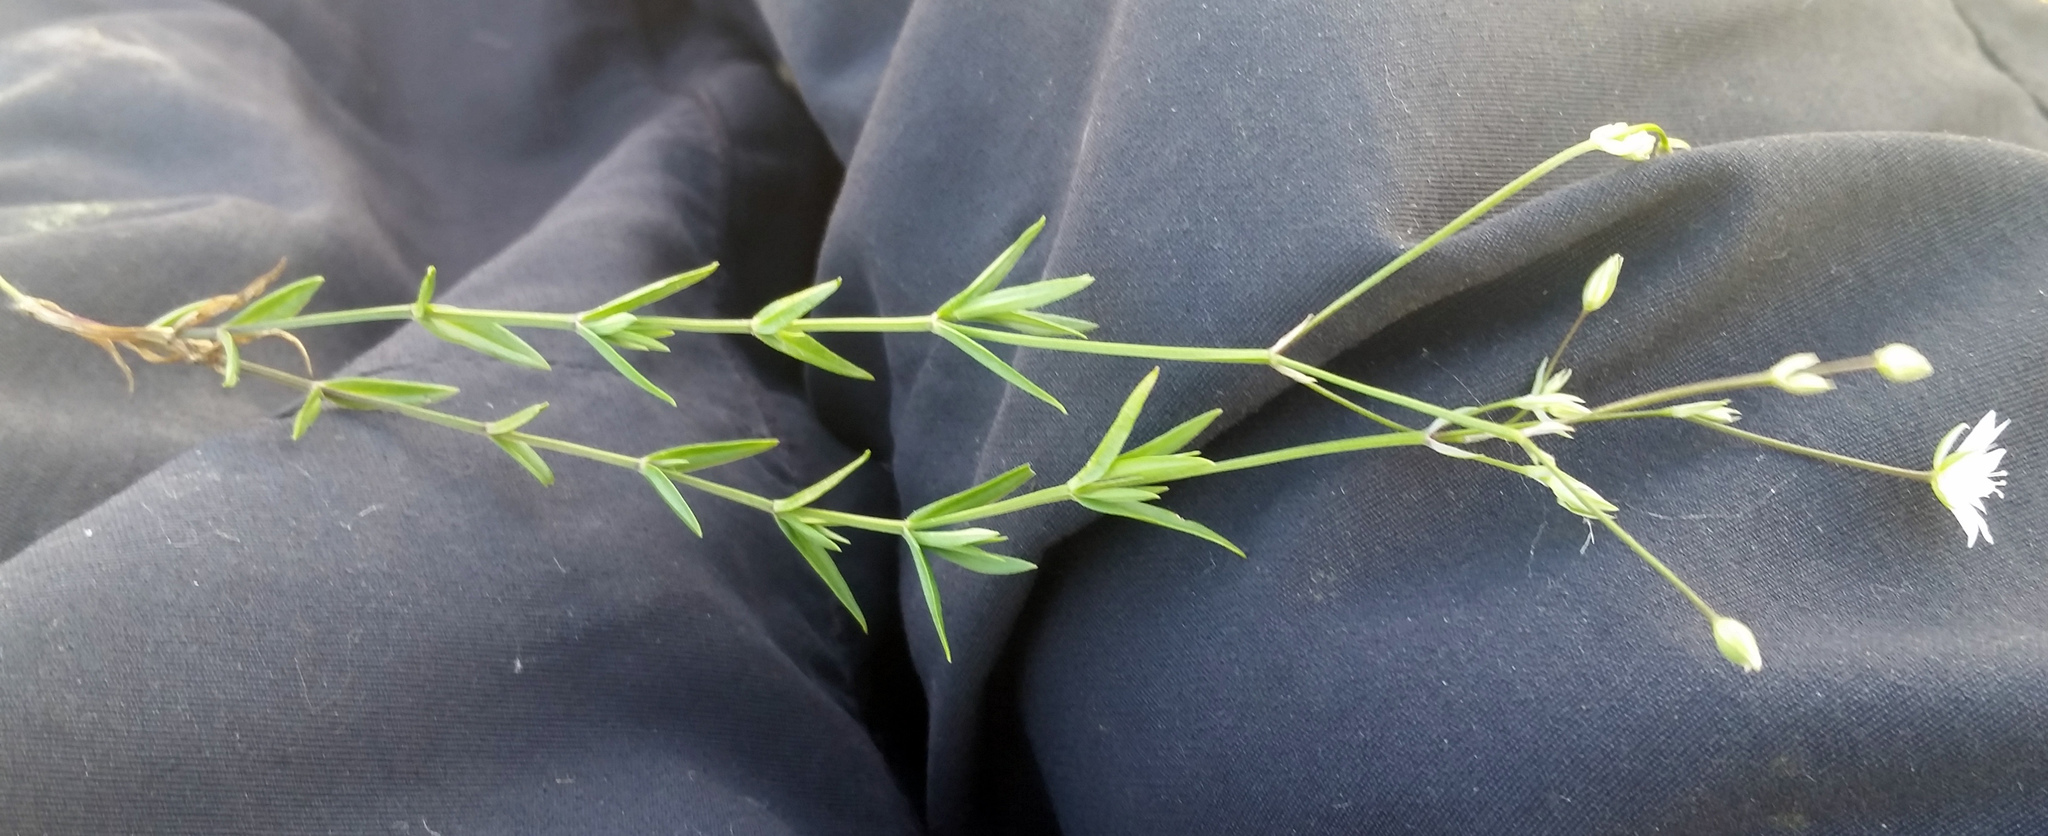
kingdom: Plantae
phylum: Tracheophyta
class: Magnoliopsida
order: Caryophyllales
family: Caryophyllaceae
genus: Rabelera
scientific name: Rabelera holostea
